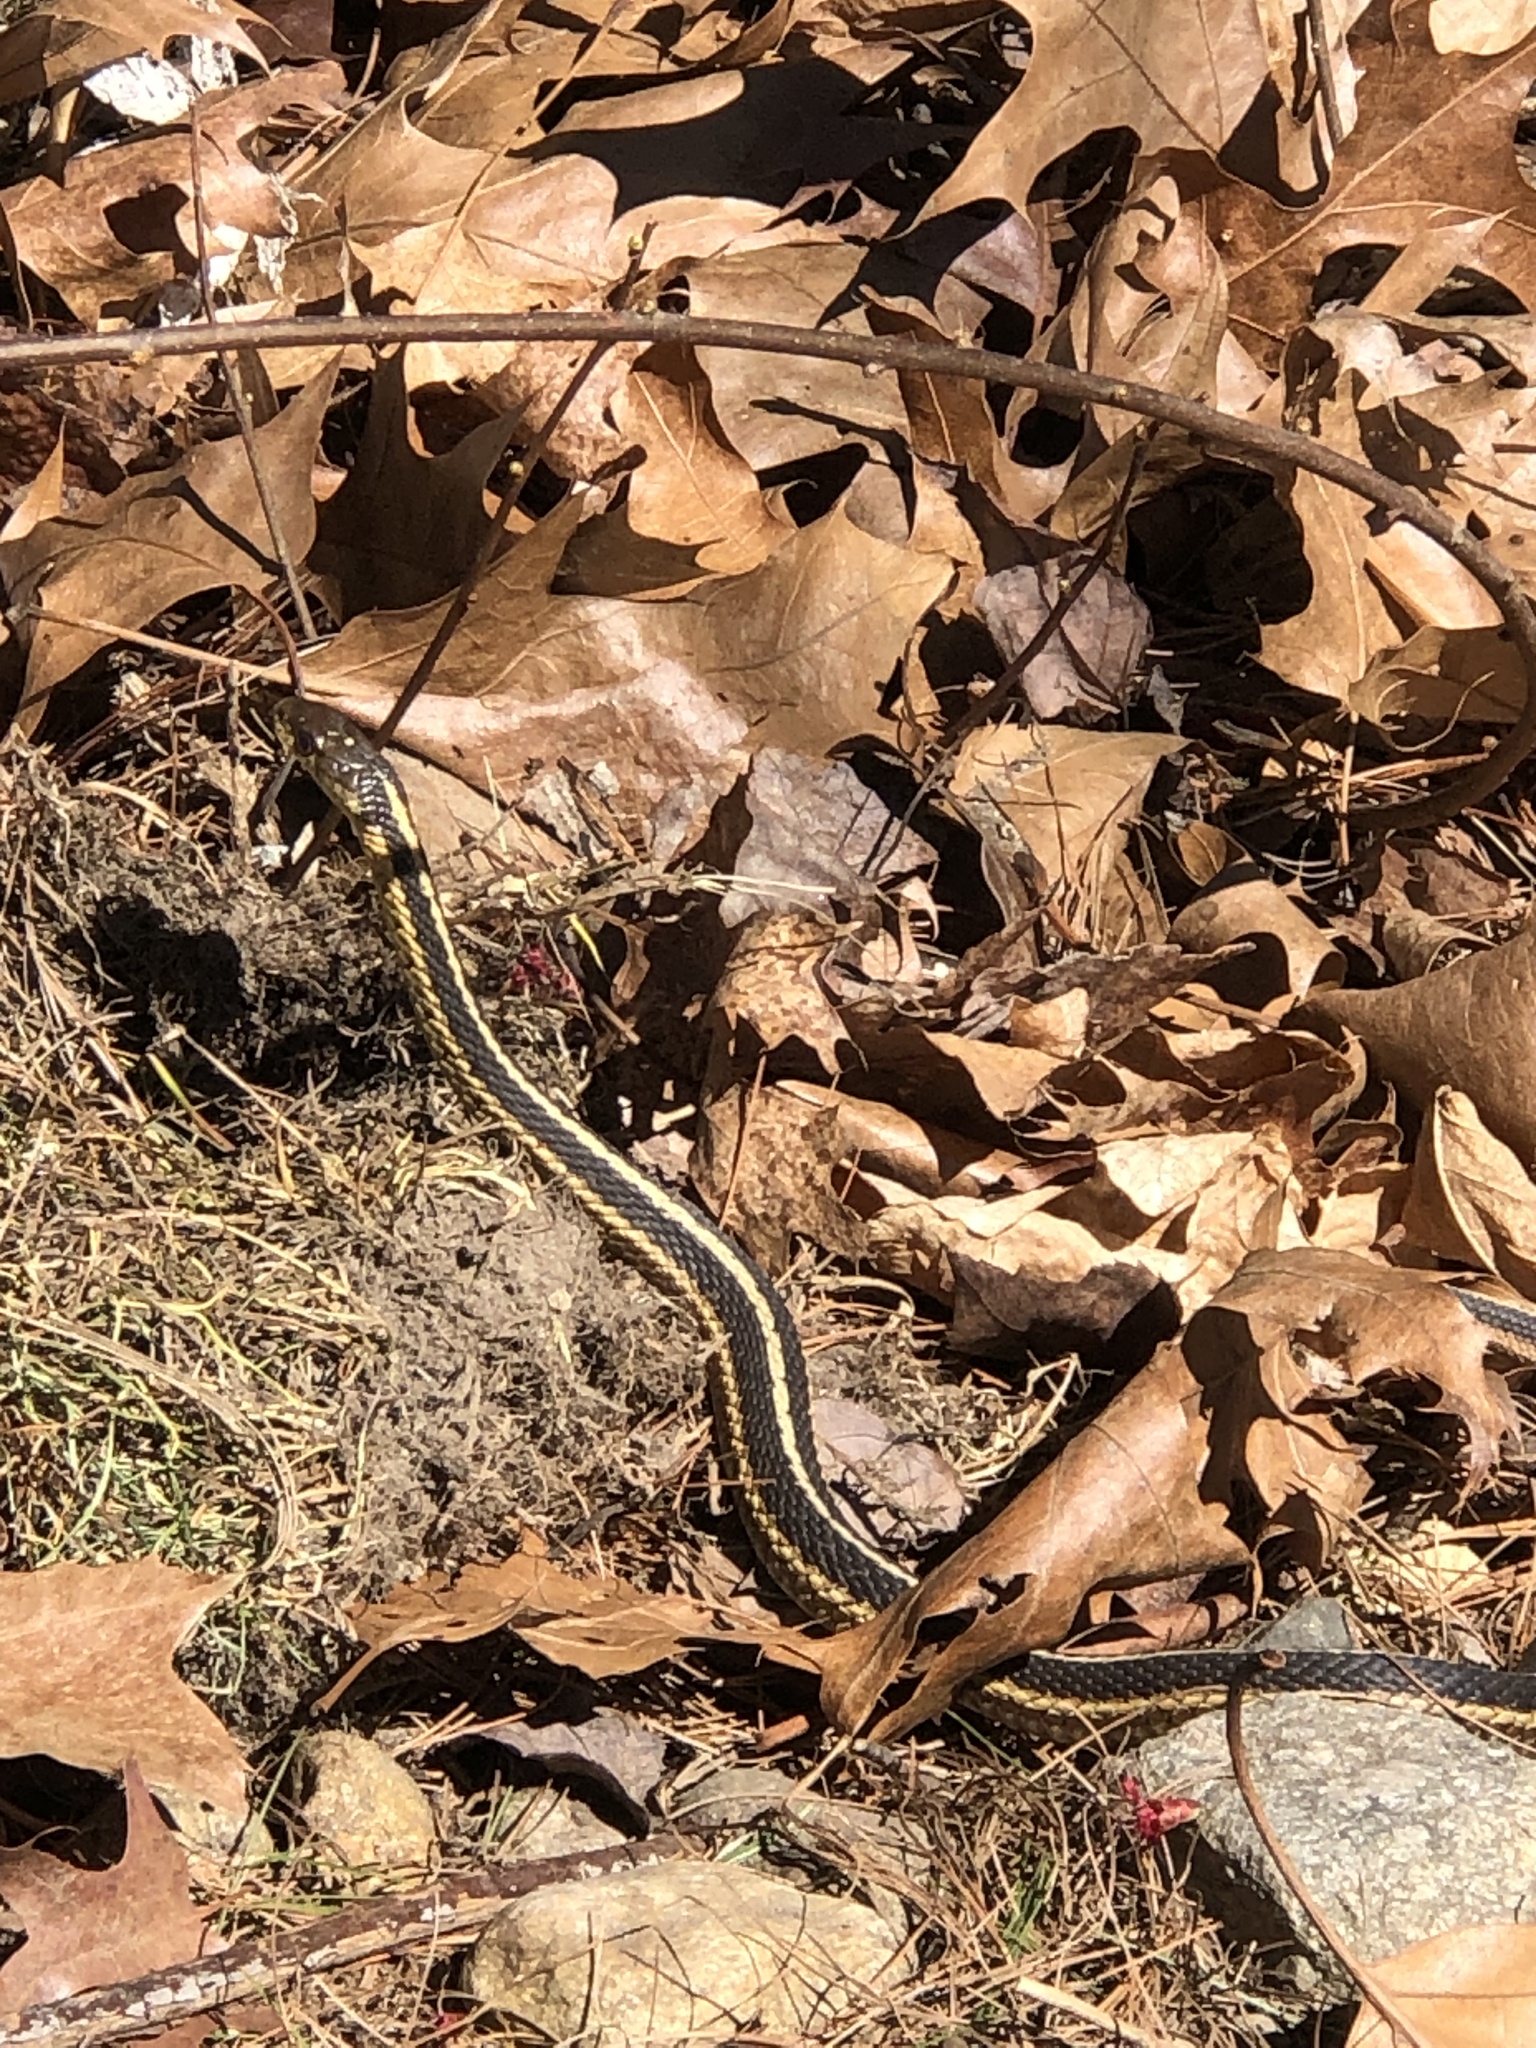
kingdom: Animalia
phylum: Chordata
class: Squamata
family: Colubridae
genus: Thamnophis
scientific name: Thamnophis sirtalis
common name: Common garter snake
